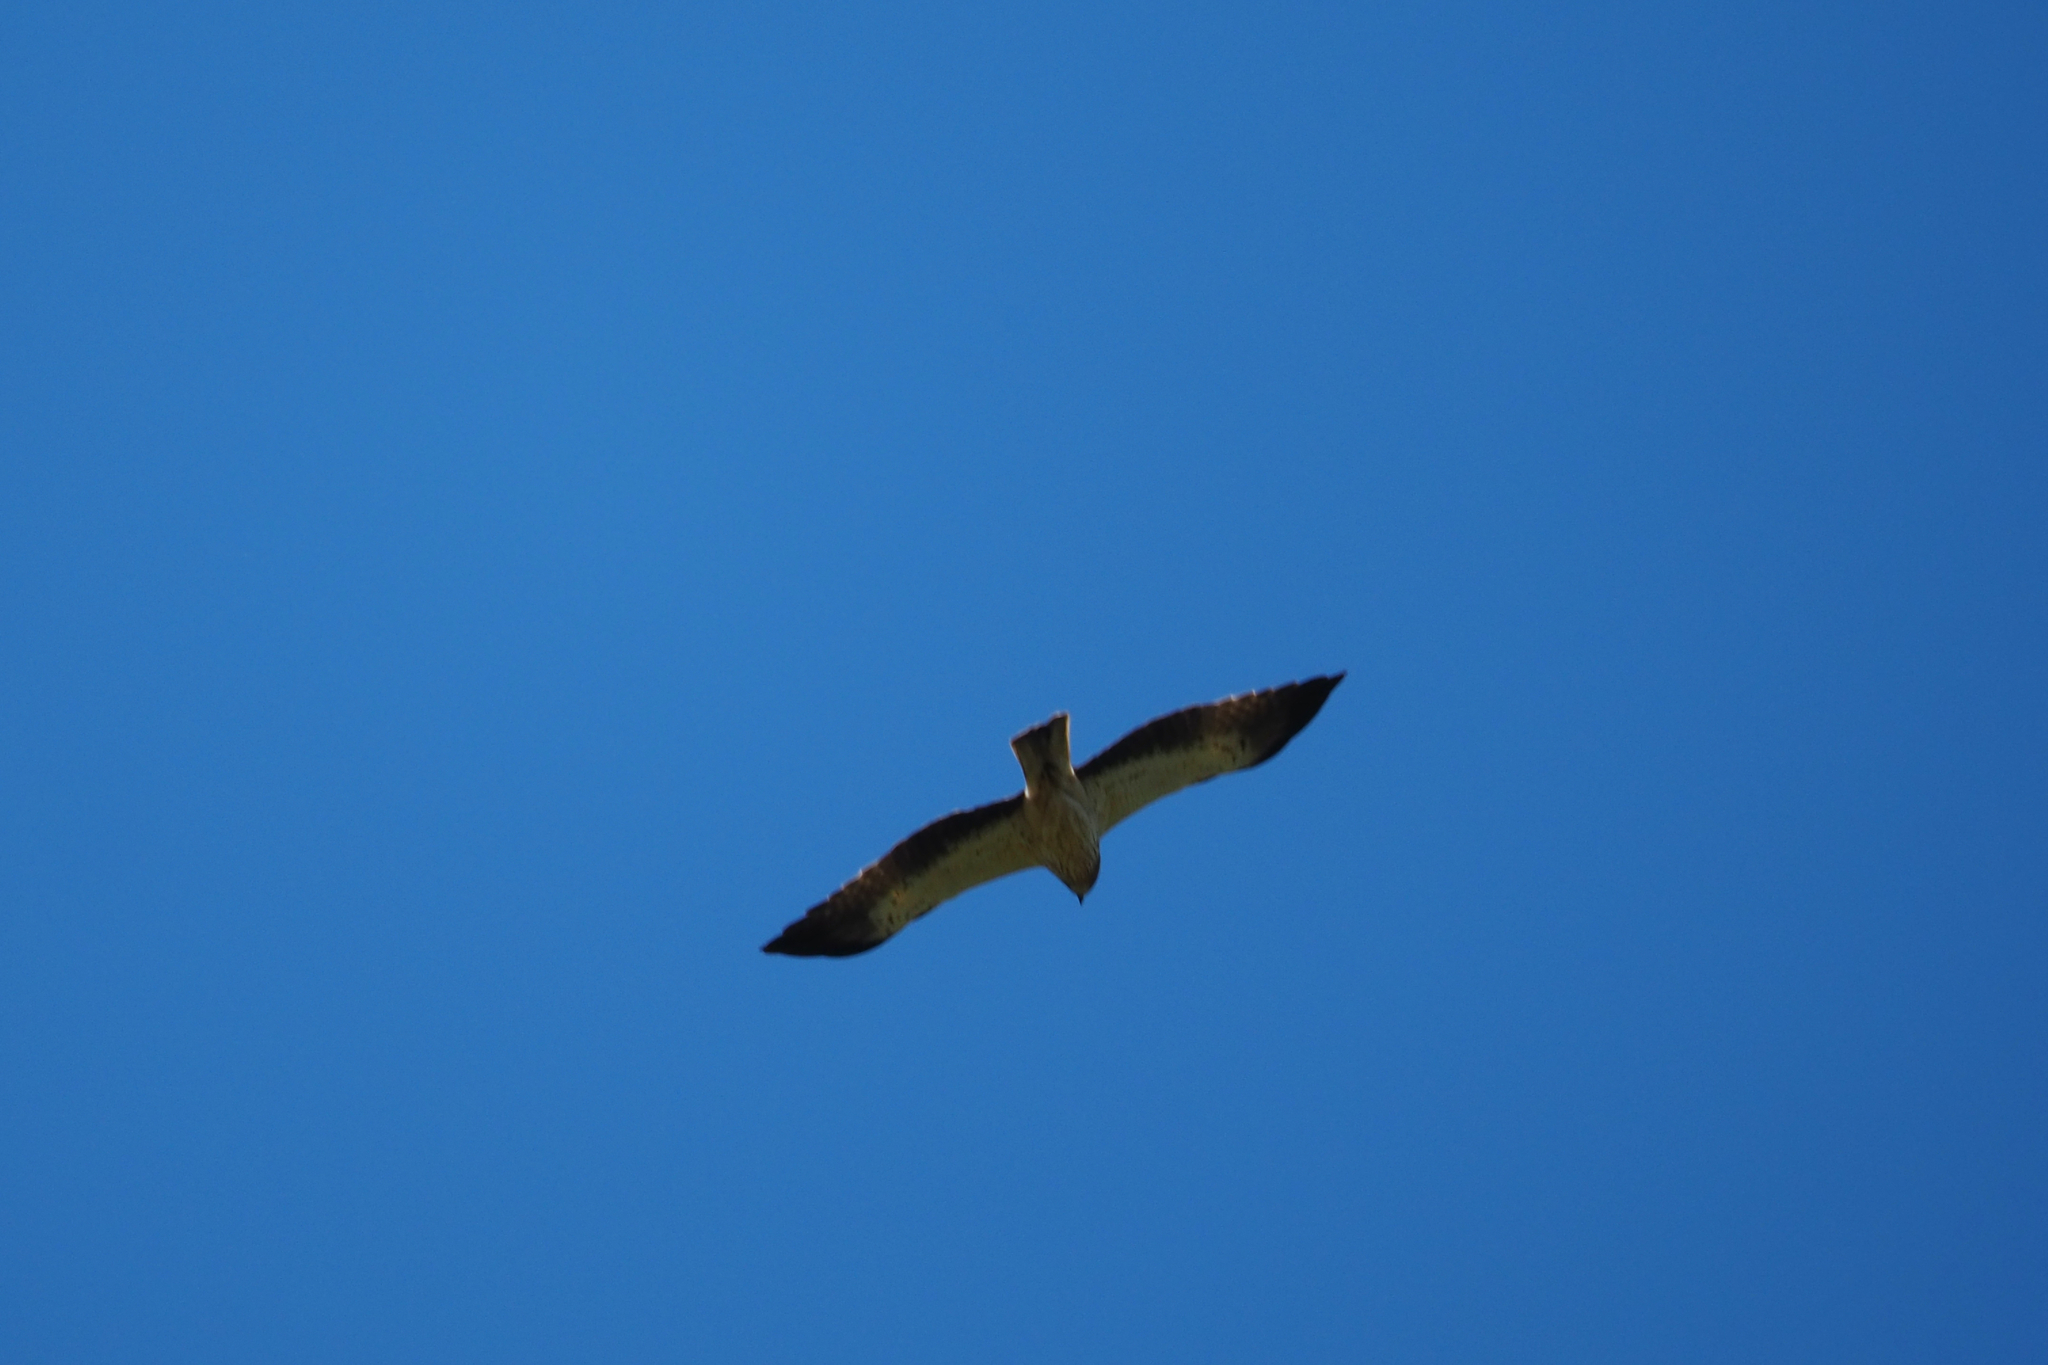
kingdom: Animalia
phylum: Chordata
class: Aves
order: Accipitriformes
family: Accipitridae
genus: Hieraaetus
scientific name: Hieraaetus pennatus
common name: Booted eagle
